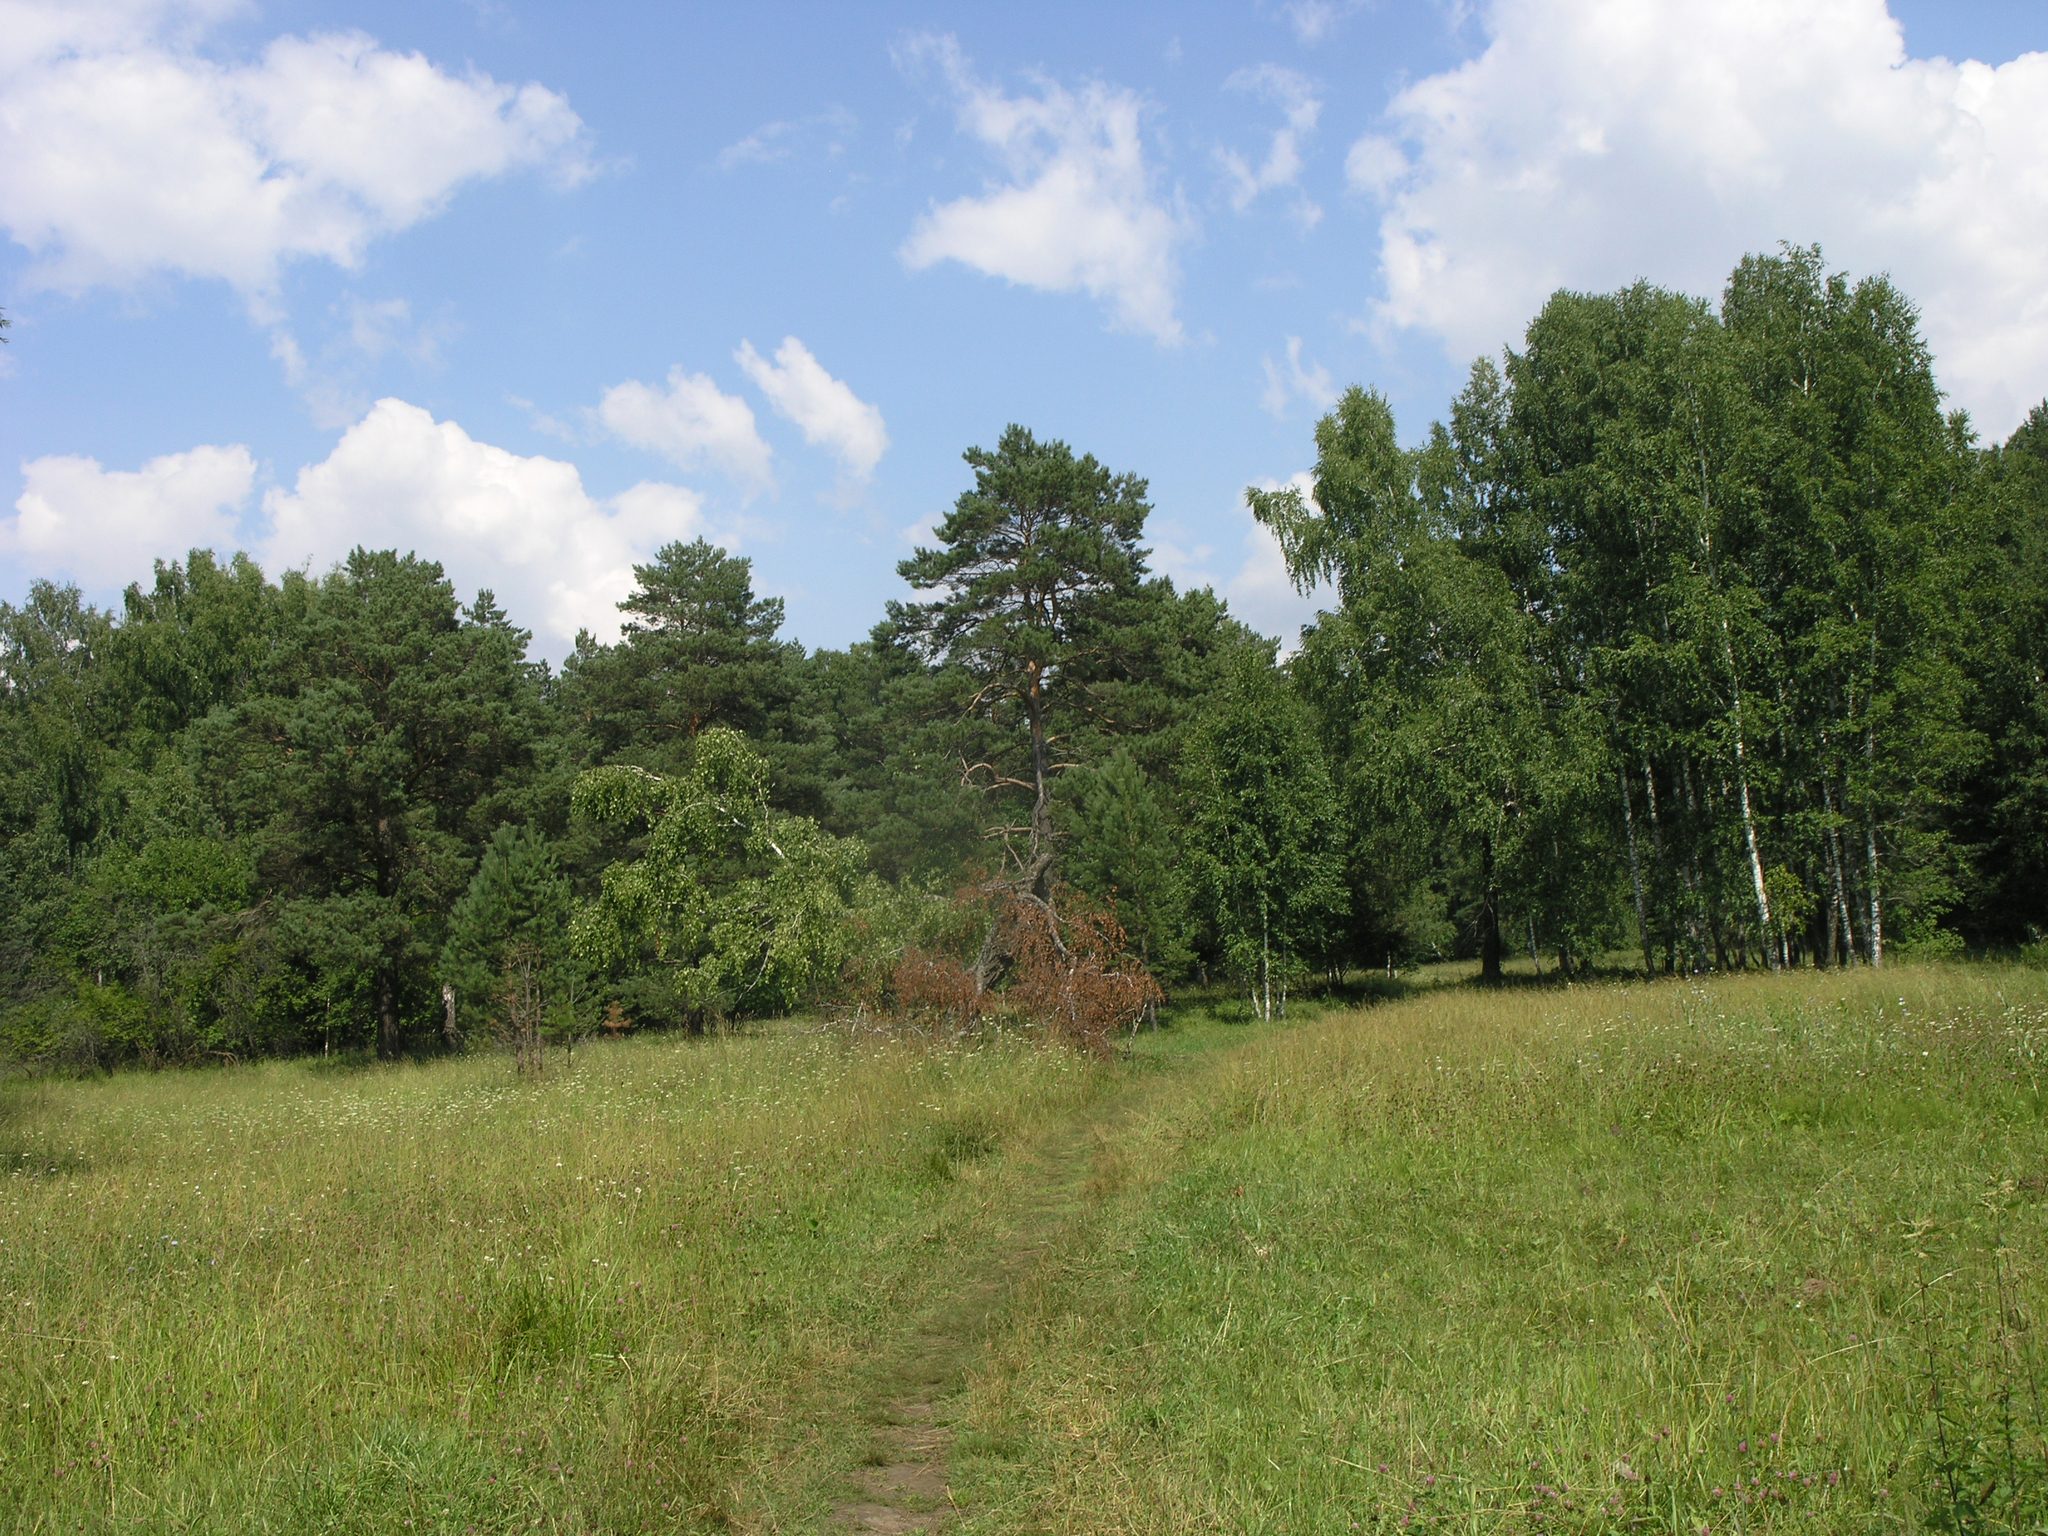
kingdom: Plantae
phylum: Tracheophyta
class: Magnoliopsida
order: Fagales
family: Betulaceae
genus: Betula
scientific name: Betula pendula
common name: Silver birch
